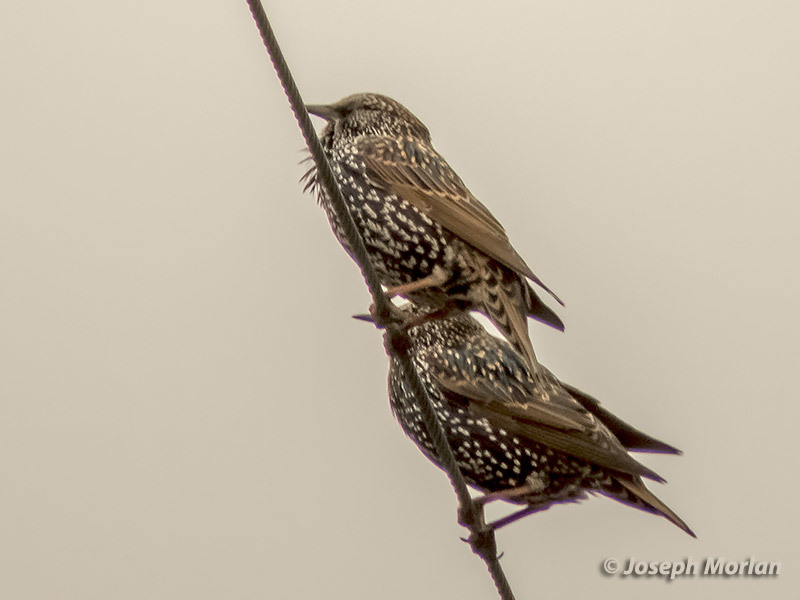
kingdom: Animalia
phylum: Chordata
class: Aves
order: Passeriformes
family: Sturnidae
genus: Sturnus
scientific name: Sturnus vulgaris
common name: Common starling
